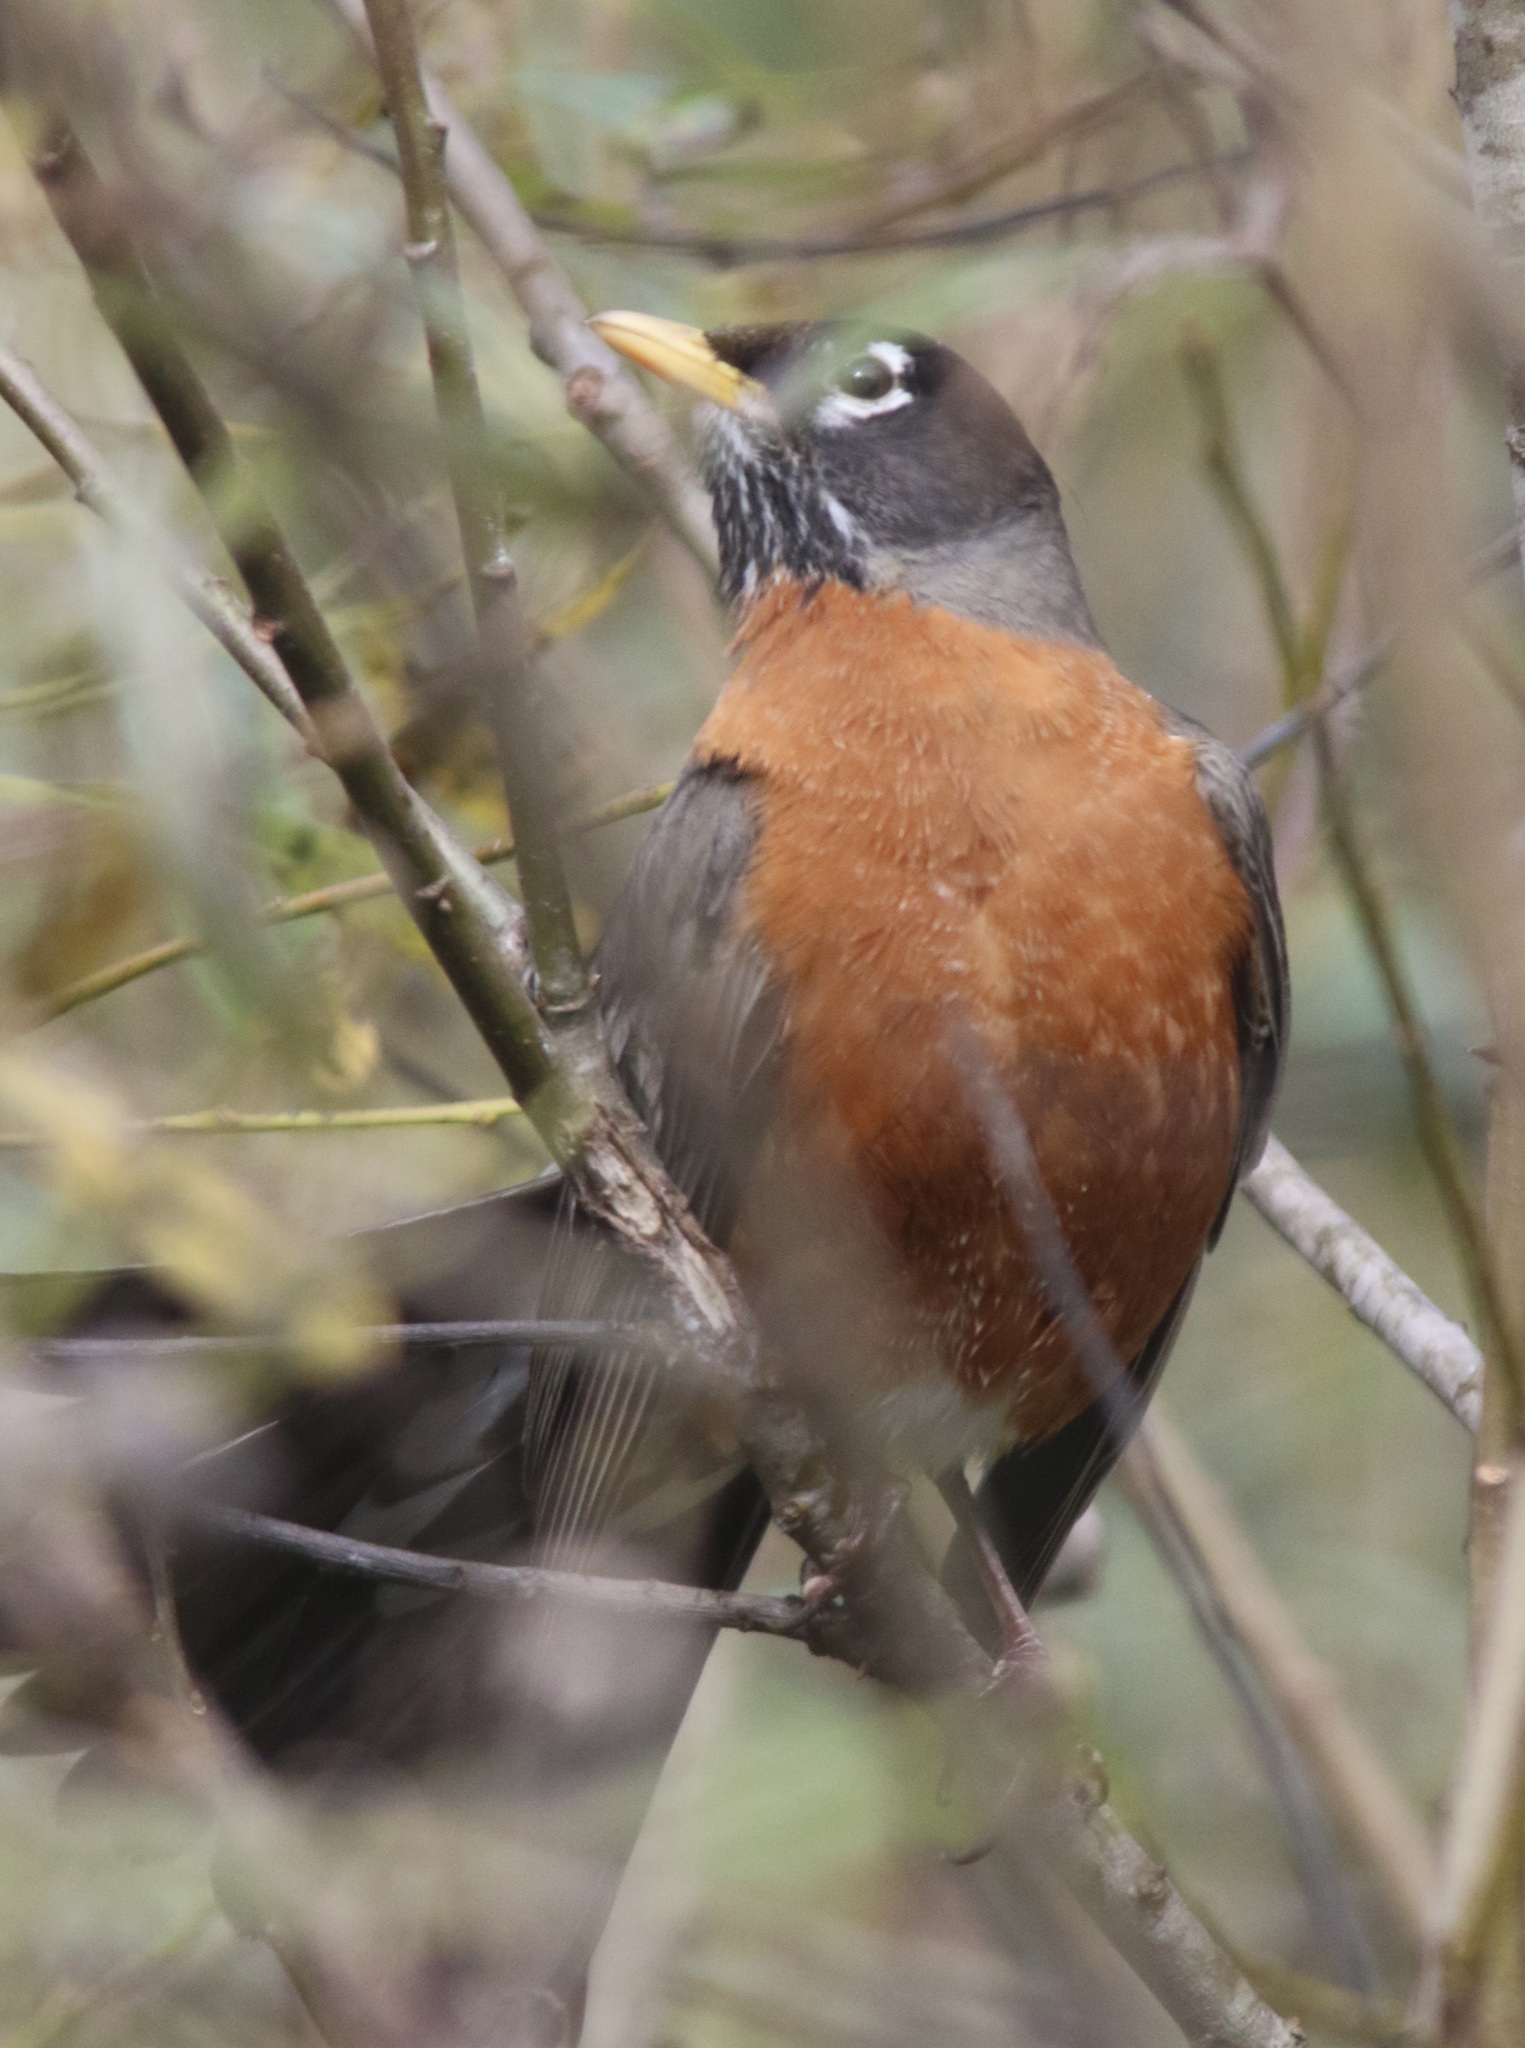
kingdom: Animalia
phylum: Chordata
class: Aves
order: Passeriformes
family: Turdidae
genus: Turdus
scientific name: Turdus migratorius
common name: American robin
